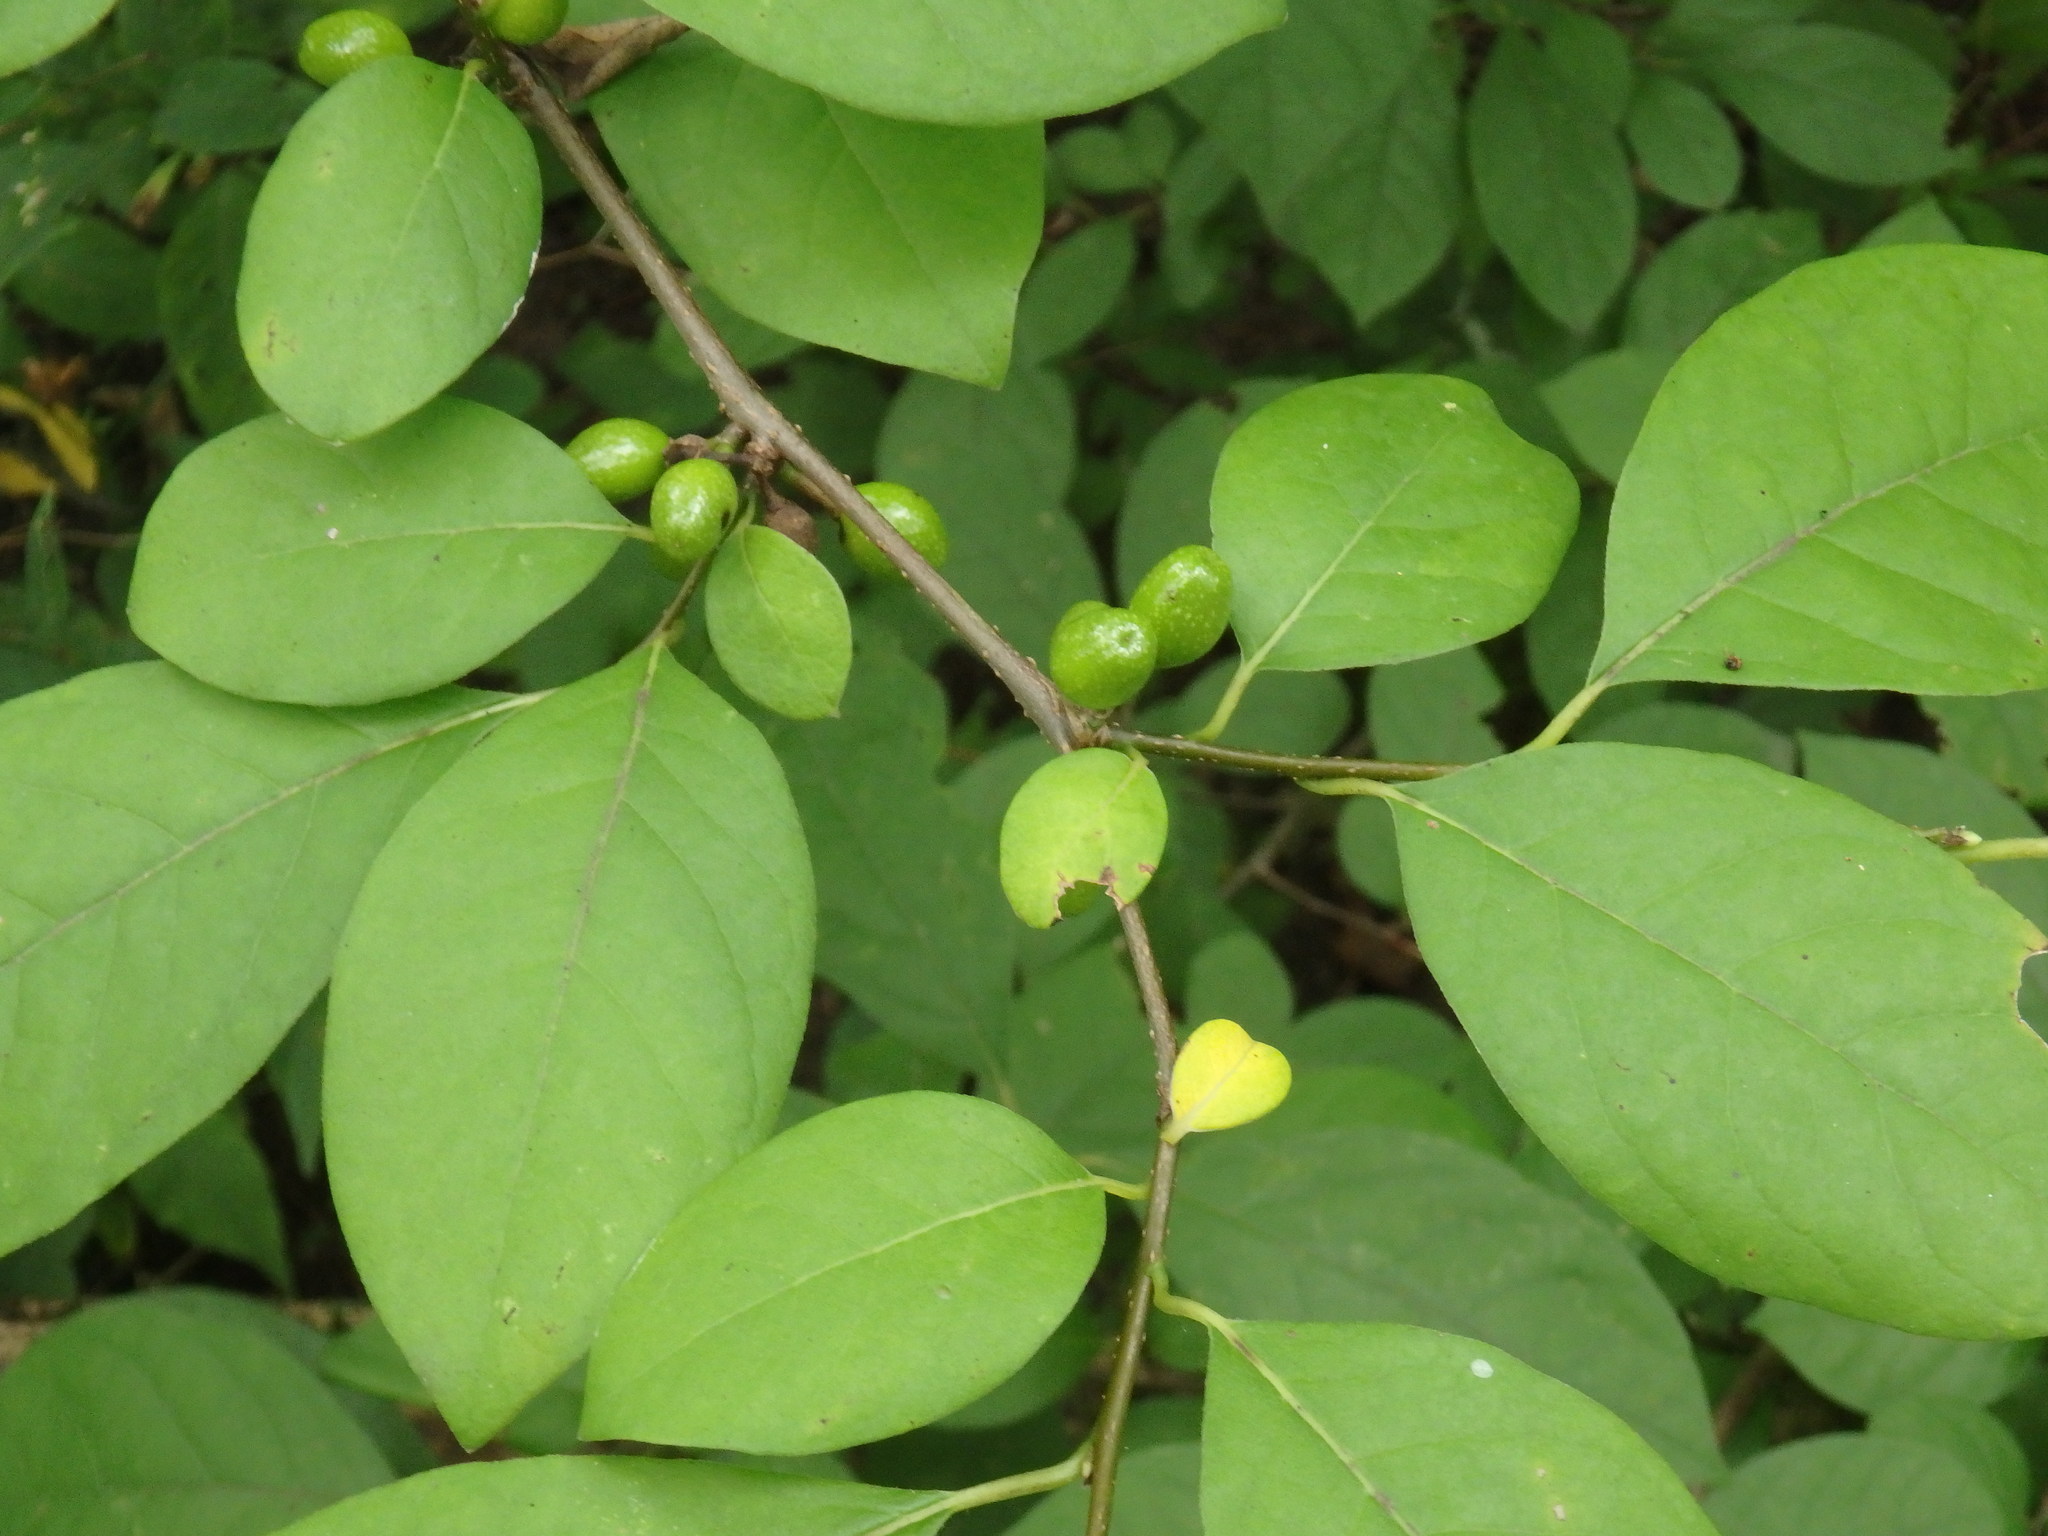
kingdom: Plantae
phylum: Tracheophyta
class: Magnoliopsida
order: Laurales
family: Lauraceae
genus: Lindera
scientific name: Lindera benzoin
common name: Spicebush
